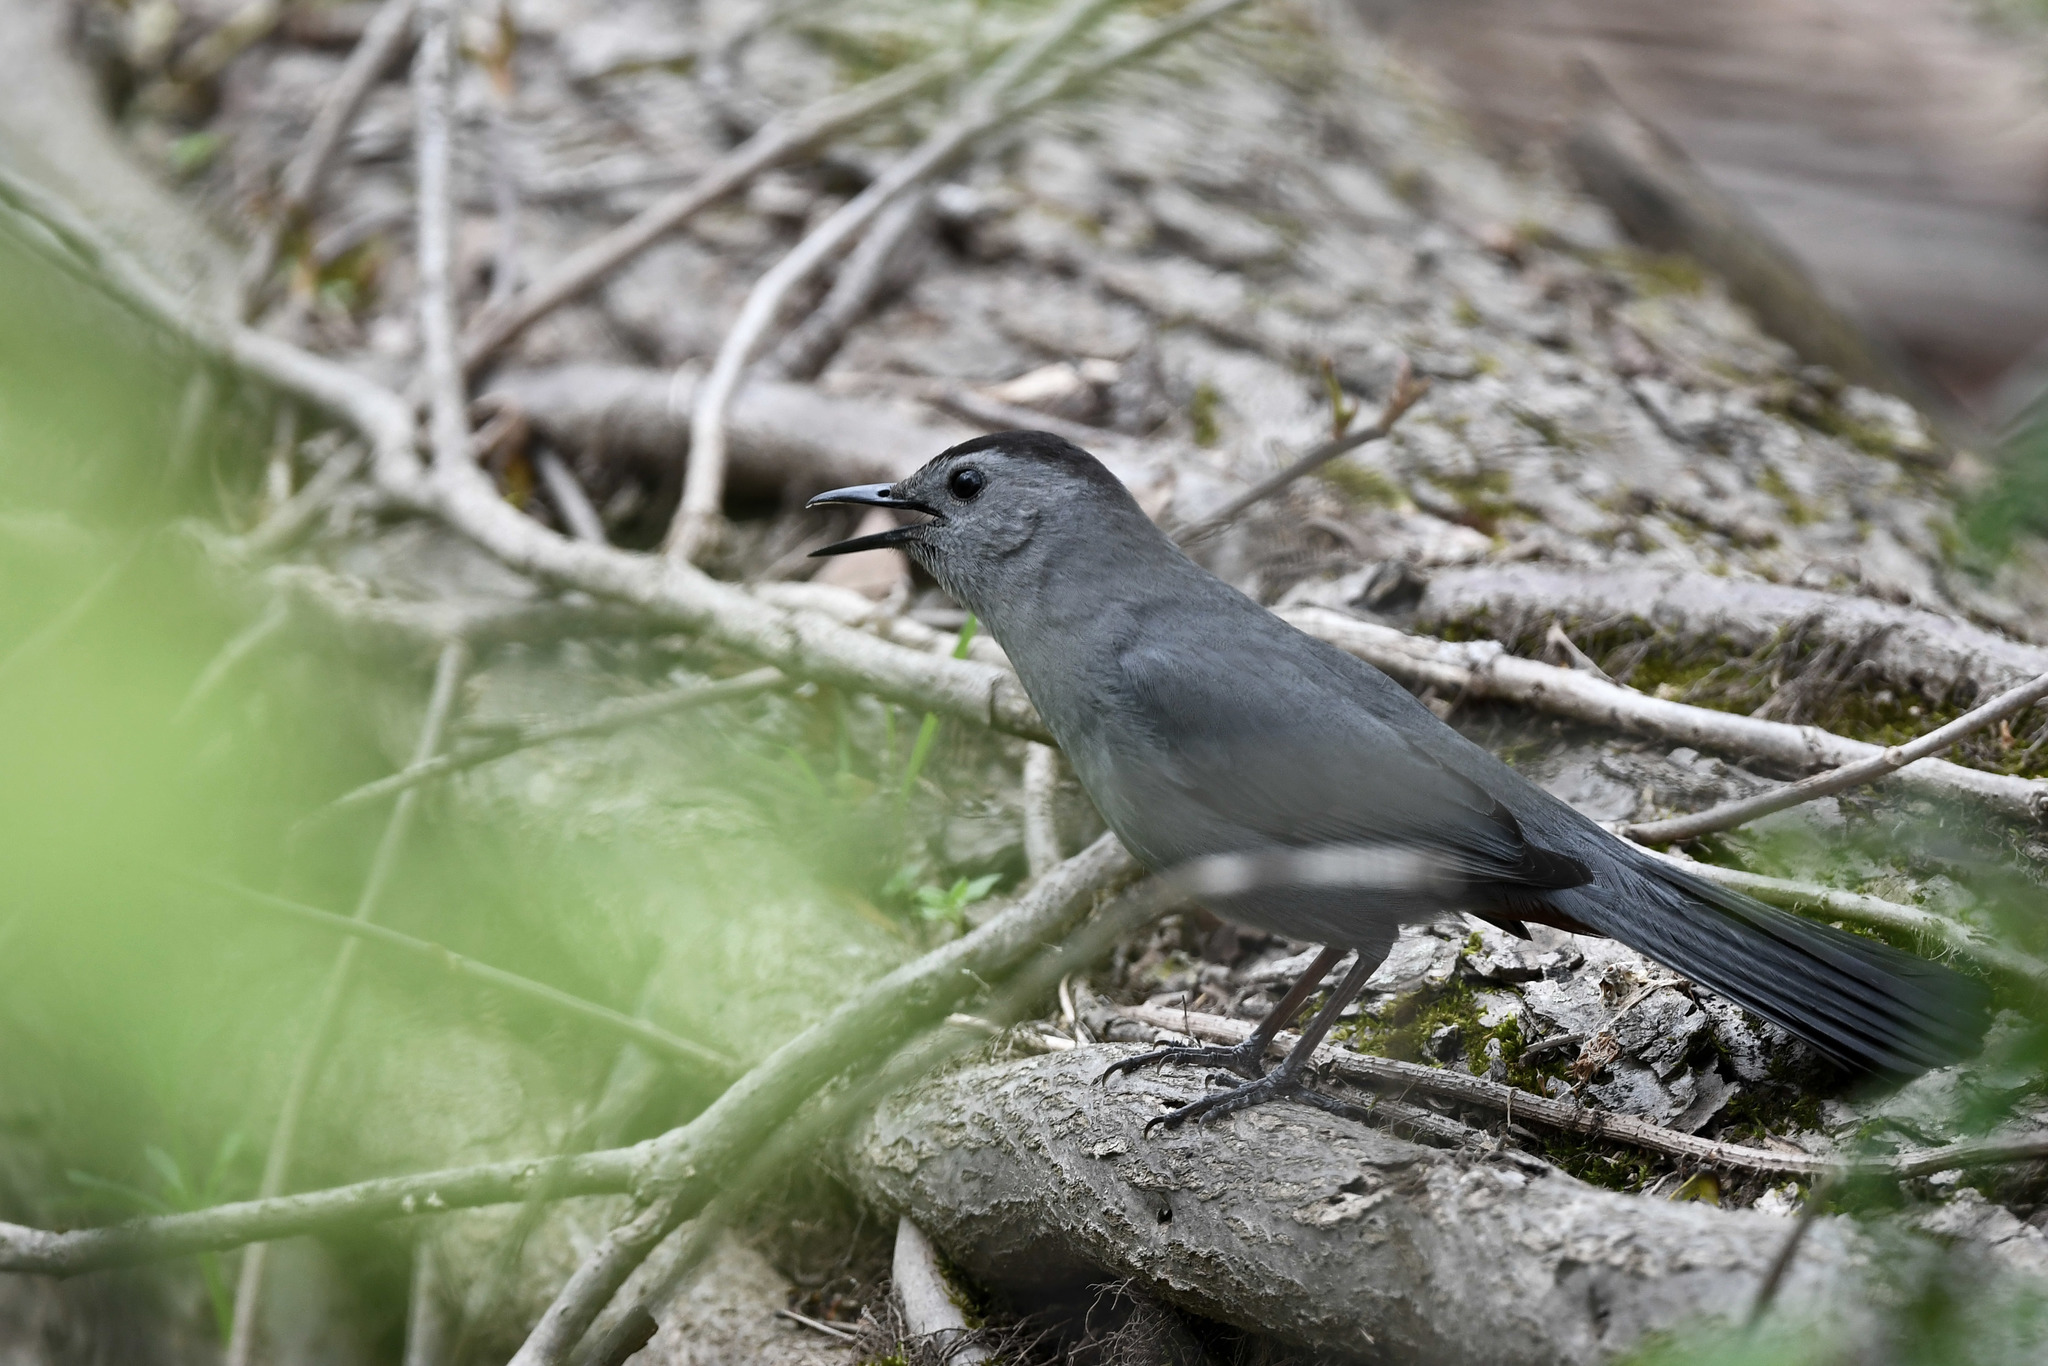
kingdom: Animalia
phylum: Chordata
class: Aves
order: Passeriformes
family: Mimidae
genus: Dumetella
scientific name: Dumetella carolinensis
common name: Gray catbird
